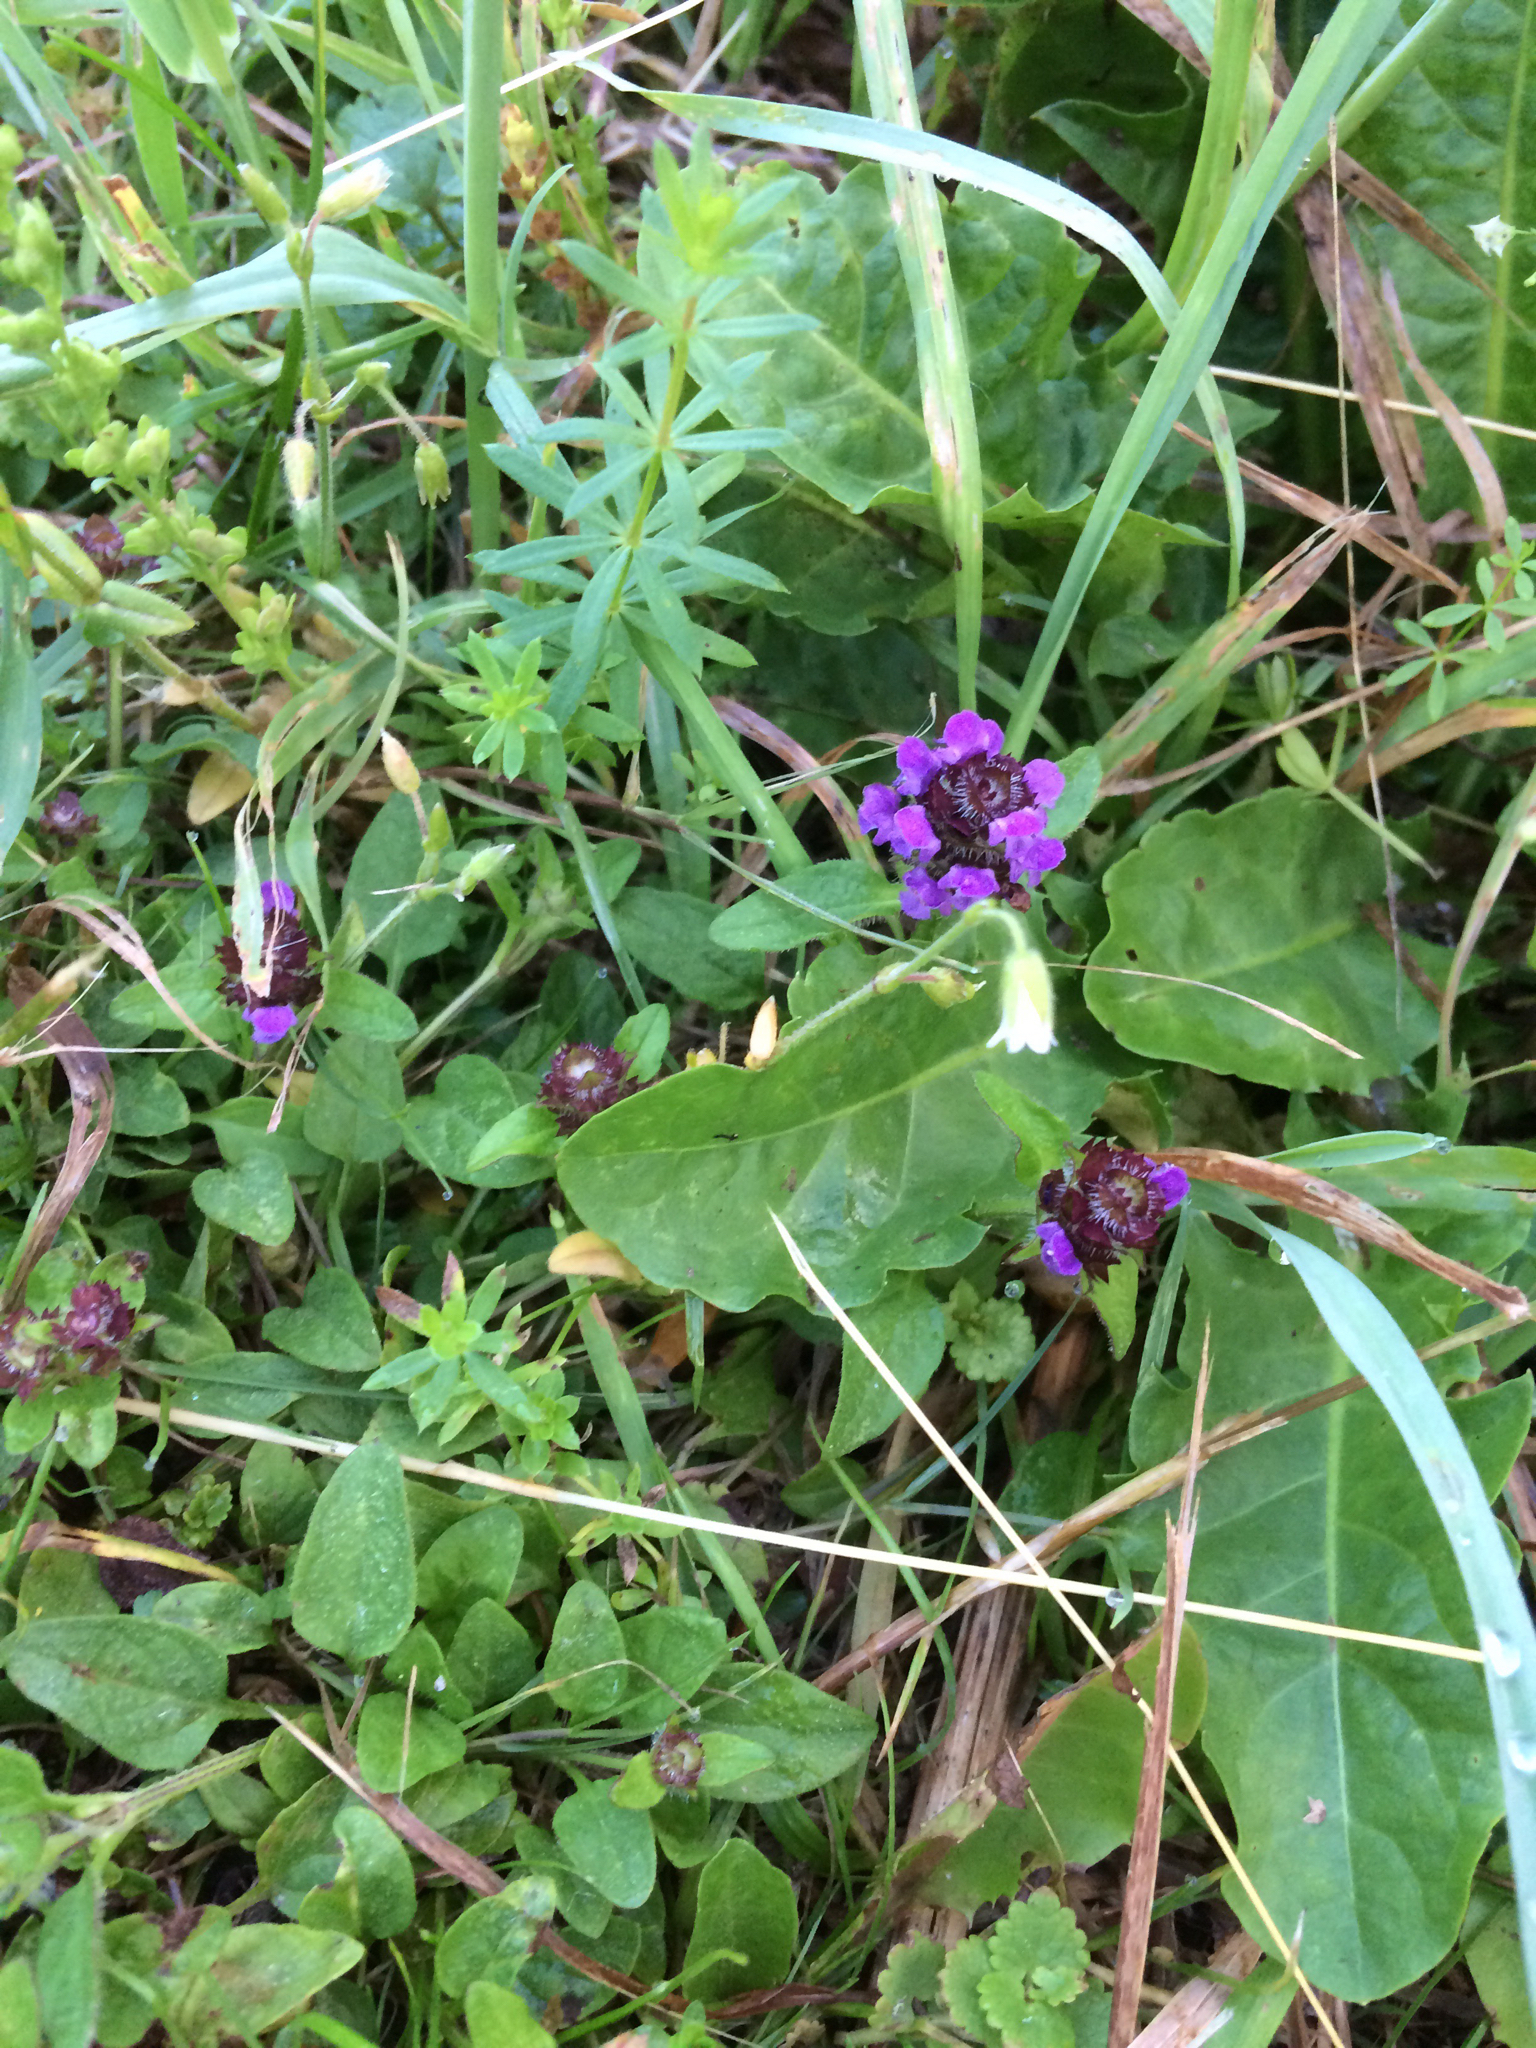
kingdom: Plantae
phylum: Tracheophyta
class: Magnoliopsida
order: Lamiales
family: Lamiaceae
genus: Prunella
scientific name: Prunella vulgaris
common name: Heal-all
